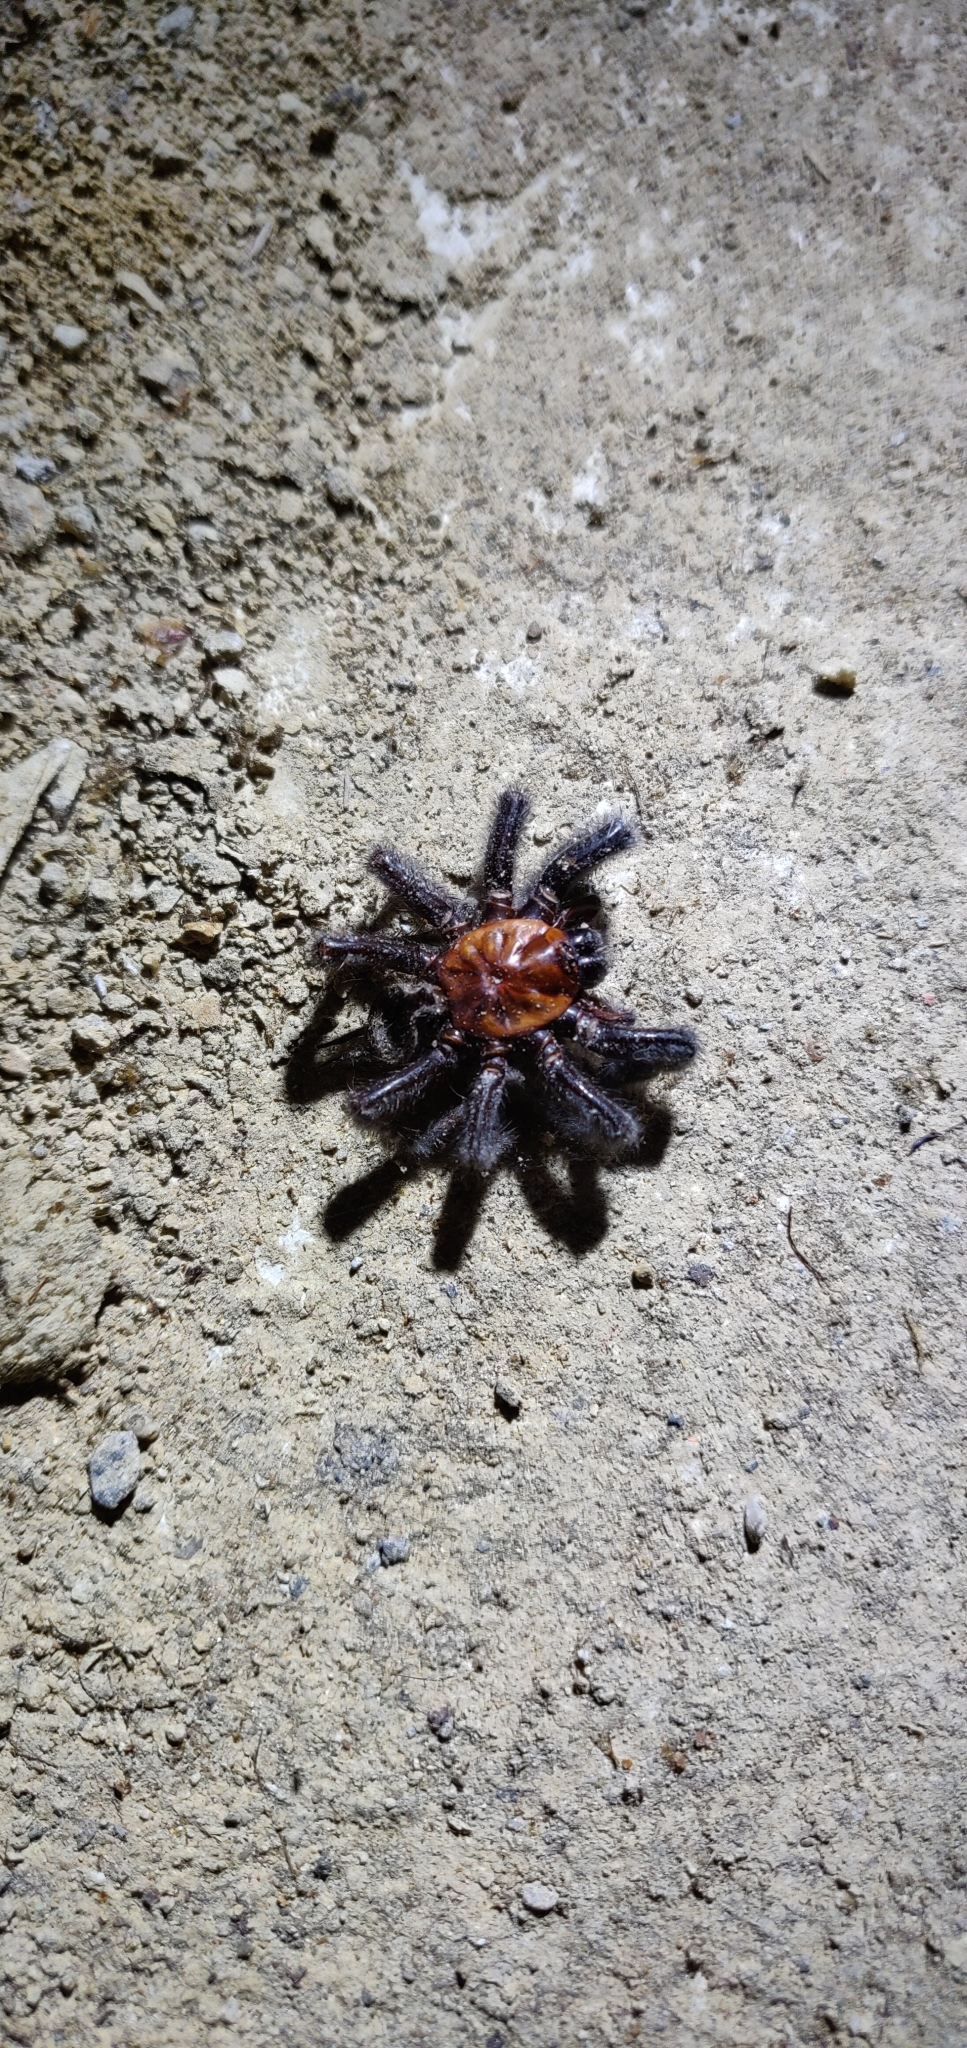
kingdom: Animalia
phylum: Arthropoda
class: Arachnida
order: Araneae
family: Porrhothelidae
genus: Porrhothele
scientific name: Porrhothele antipodiana
